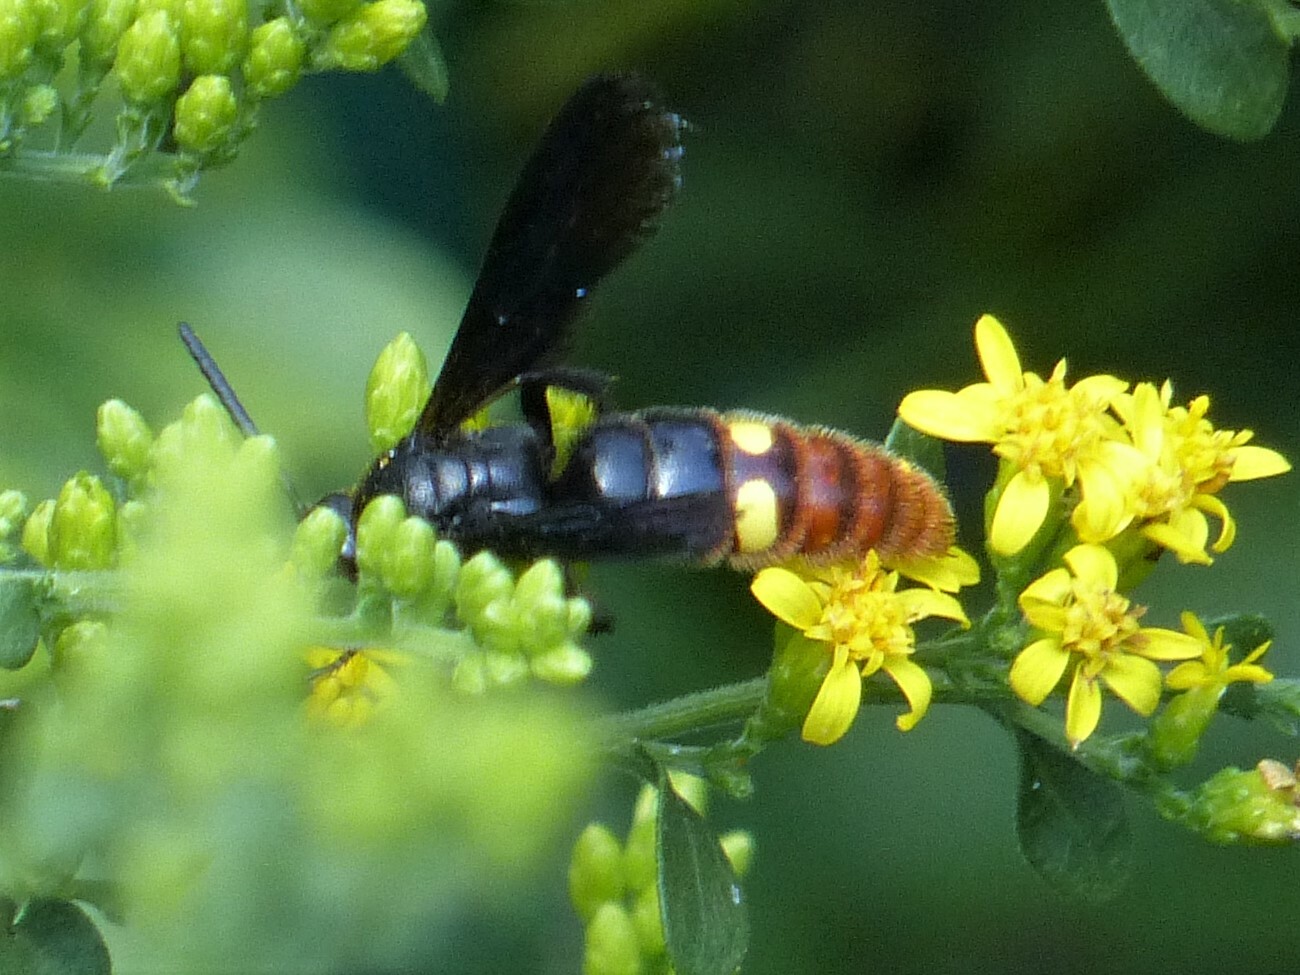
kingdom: Animalia
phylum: Arthropoda
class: Insecta
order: Hymenoptera
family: Scoliidae
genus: Scolia
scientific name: Scolia dubia
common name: Blue-winged scoliid wasp
